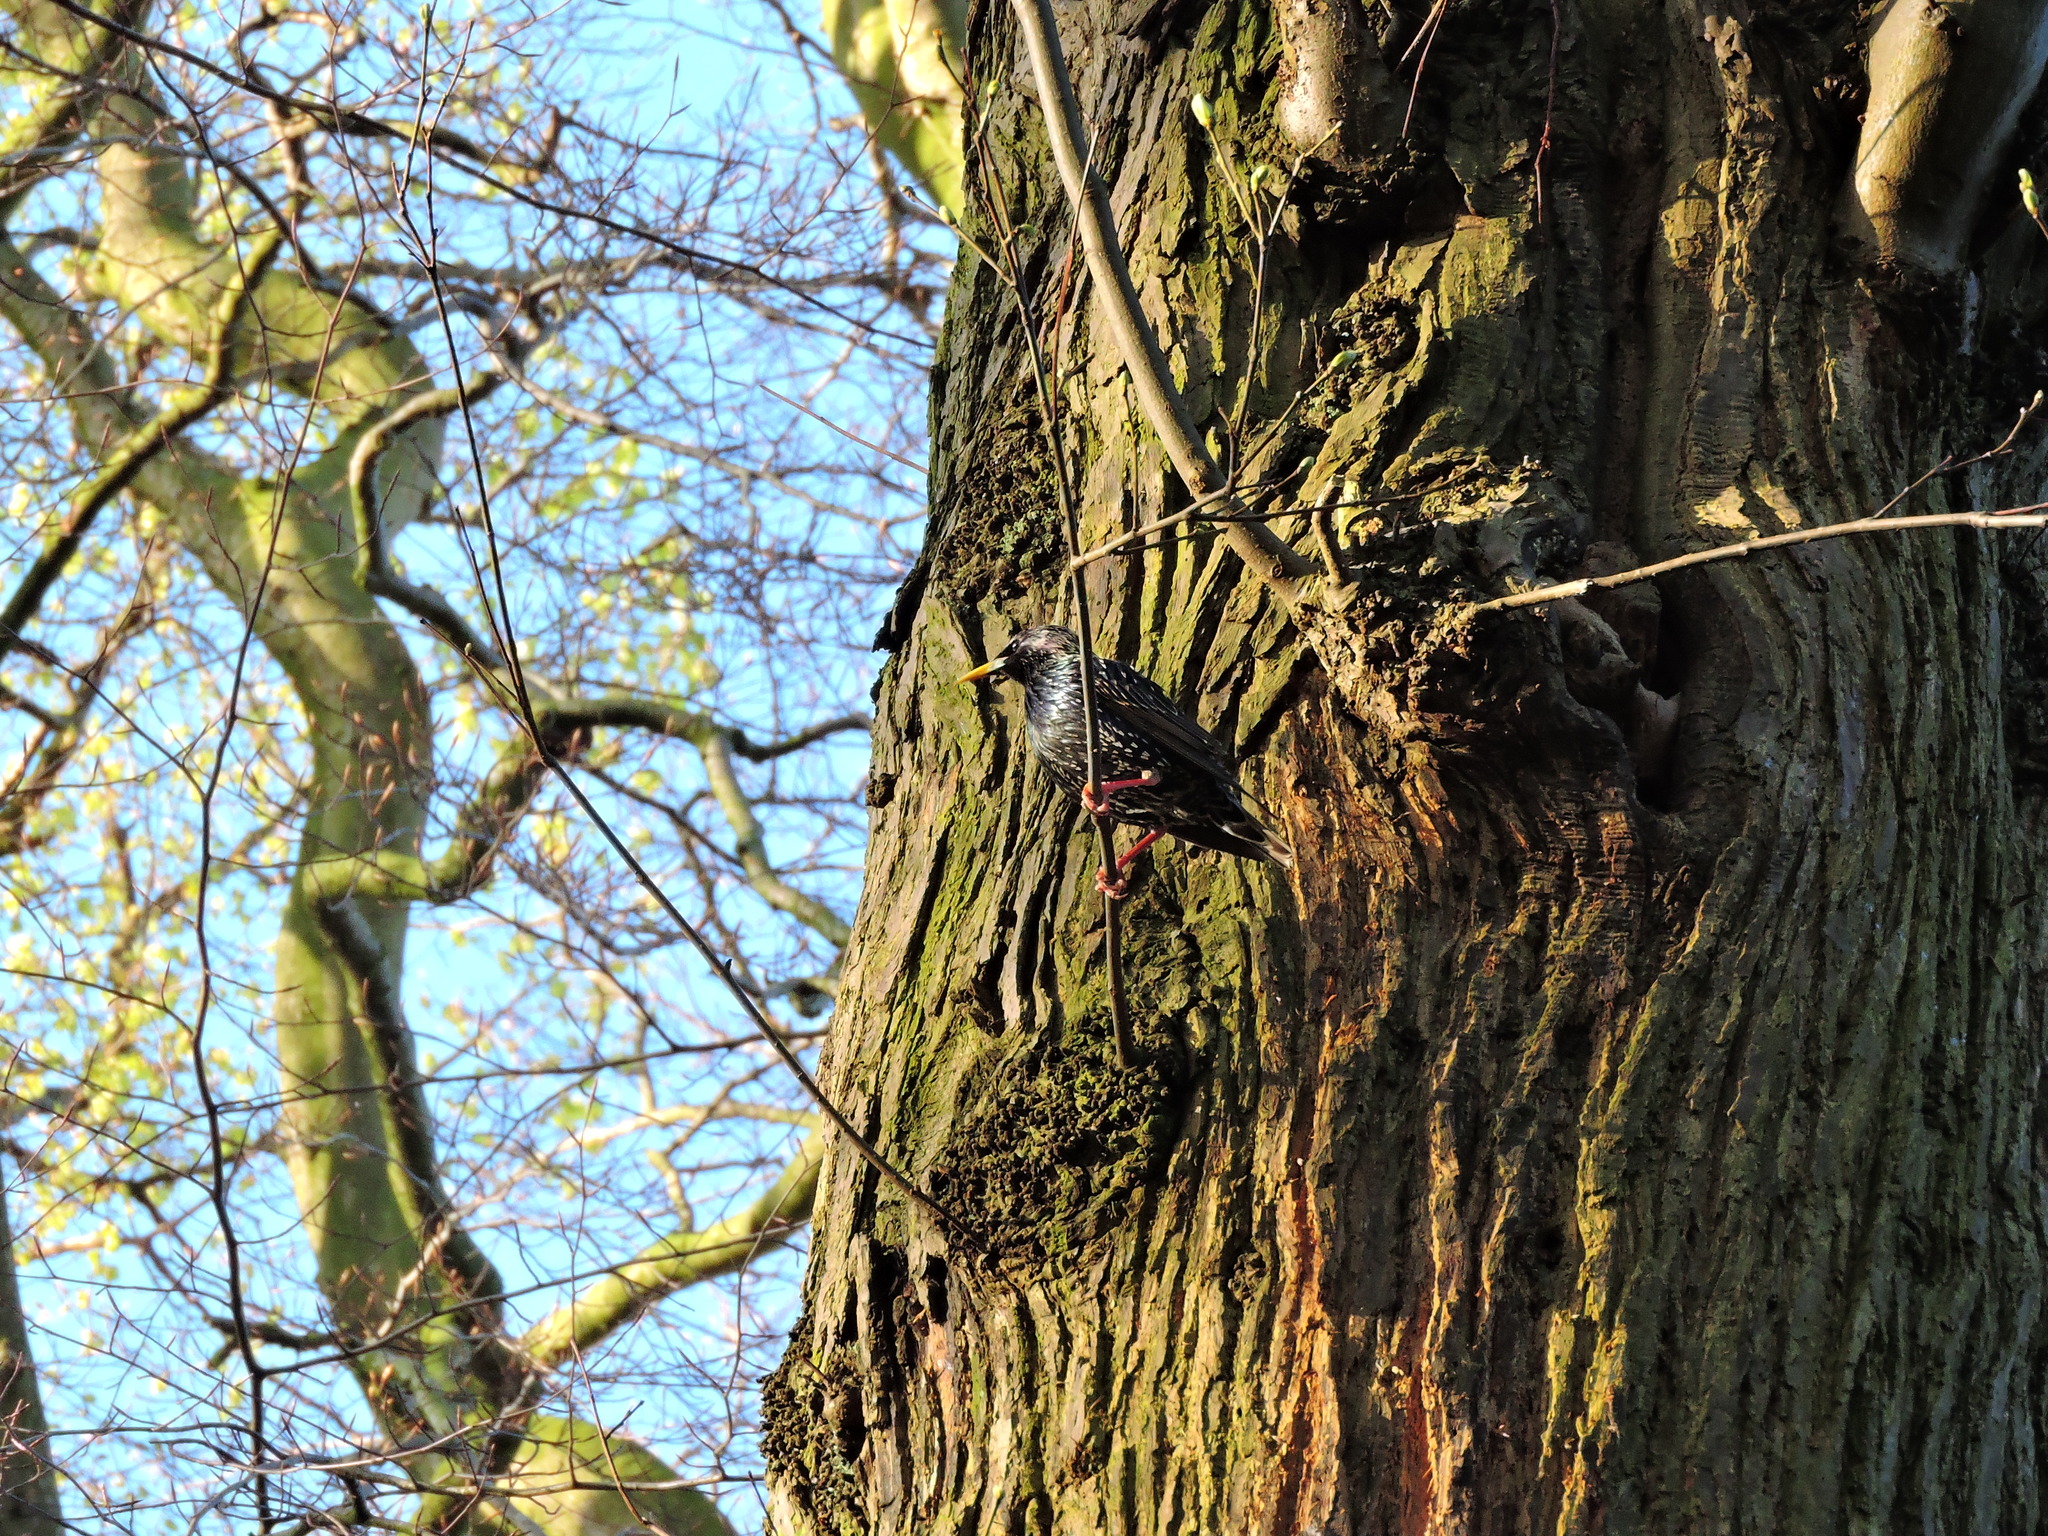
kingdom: Animalia
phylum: Chordata
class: Aves
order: Passeriformes
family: Sturnidae
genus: Sturnus
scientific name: Sturnus vulgaris
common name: Common starling
